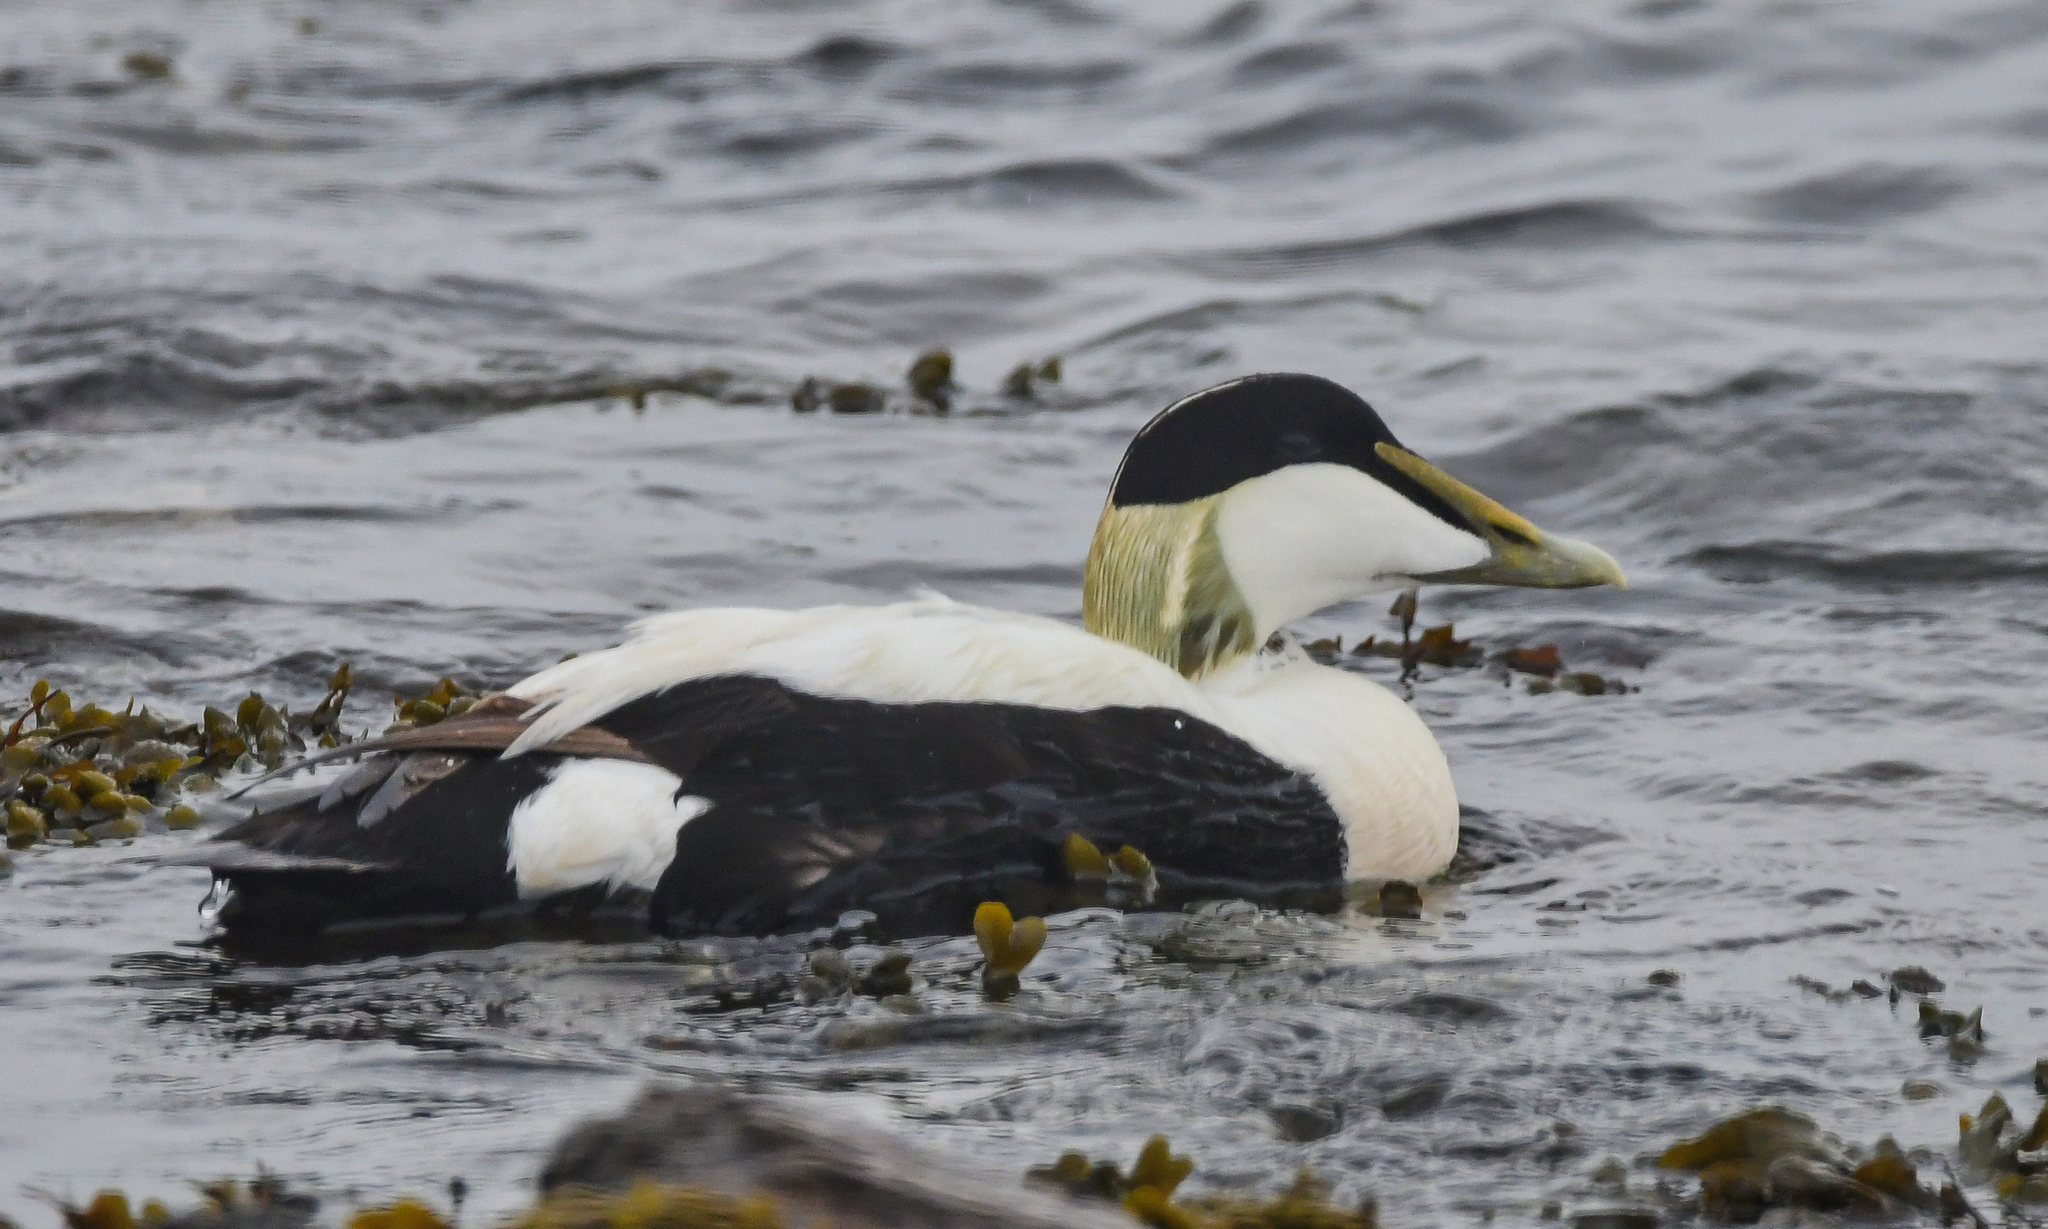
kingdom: Animalia
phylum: Chordata
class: Aves
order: Anseriformes
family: Anatidae
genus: Somateria
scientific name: Somateria mollissima
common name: Common eider
